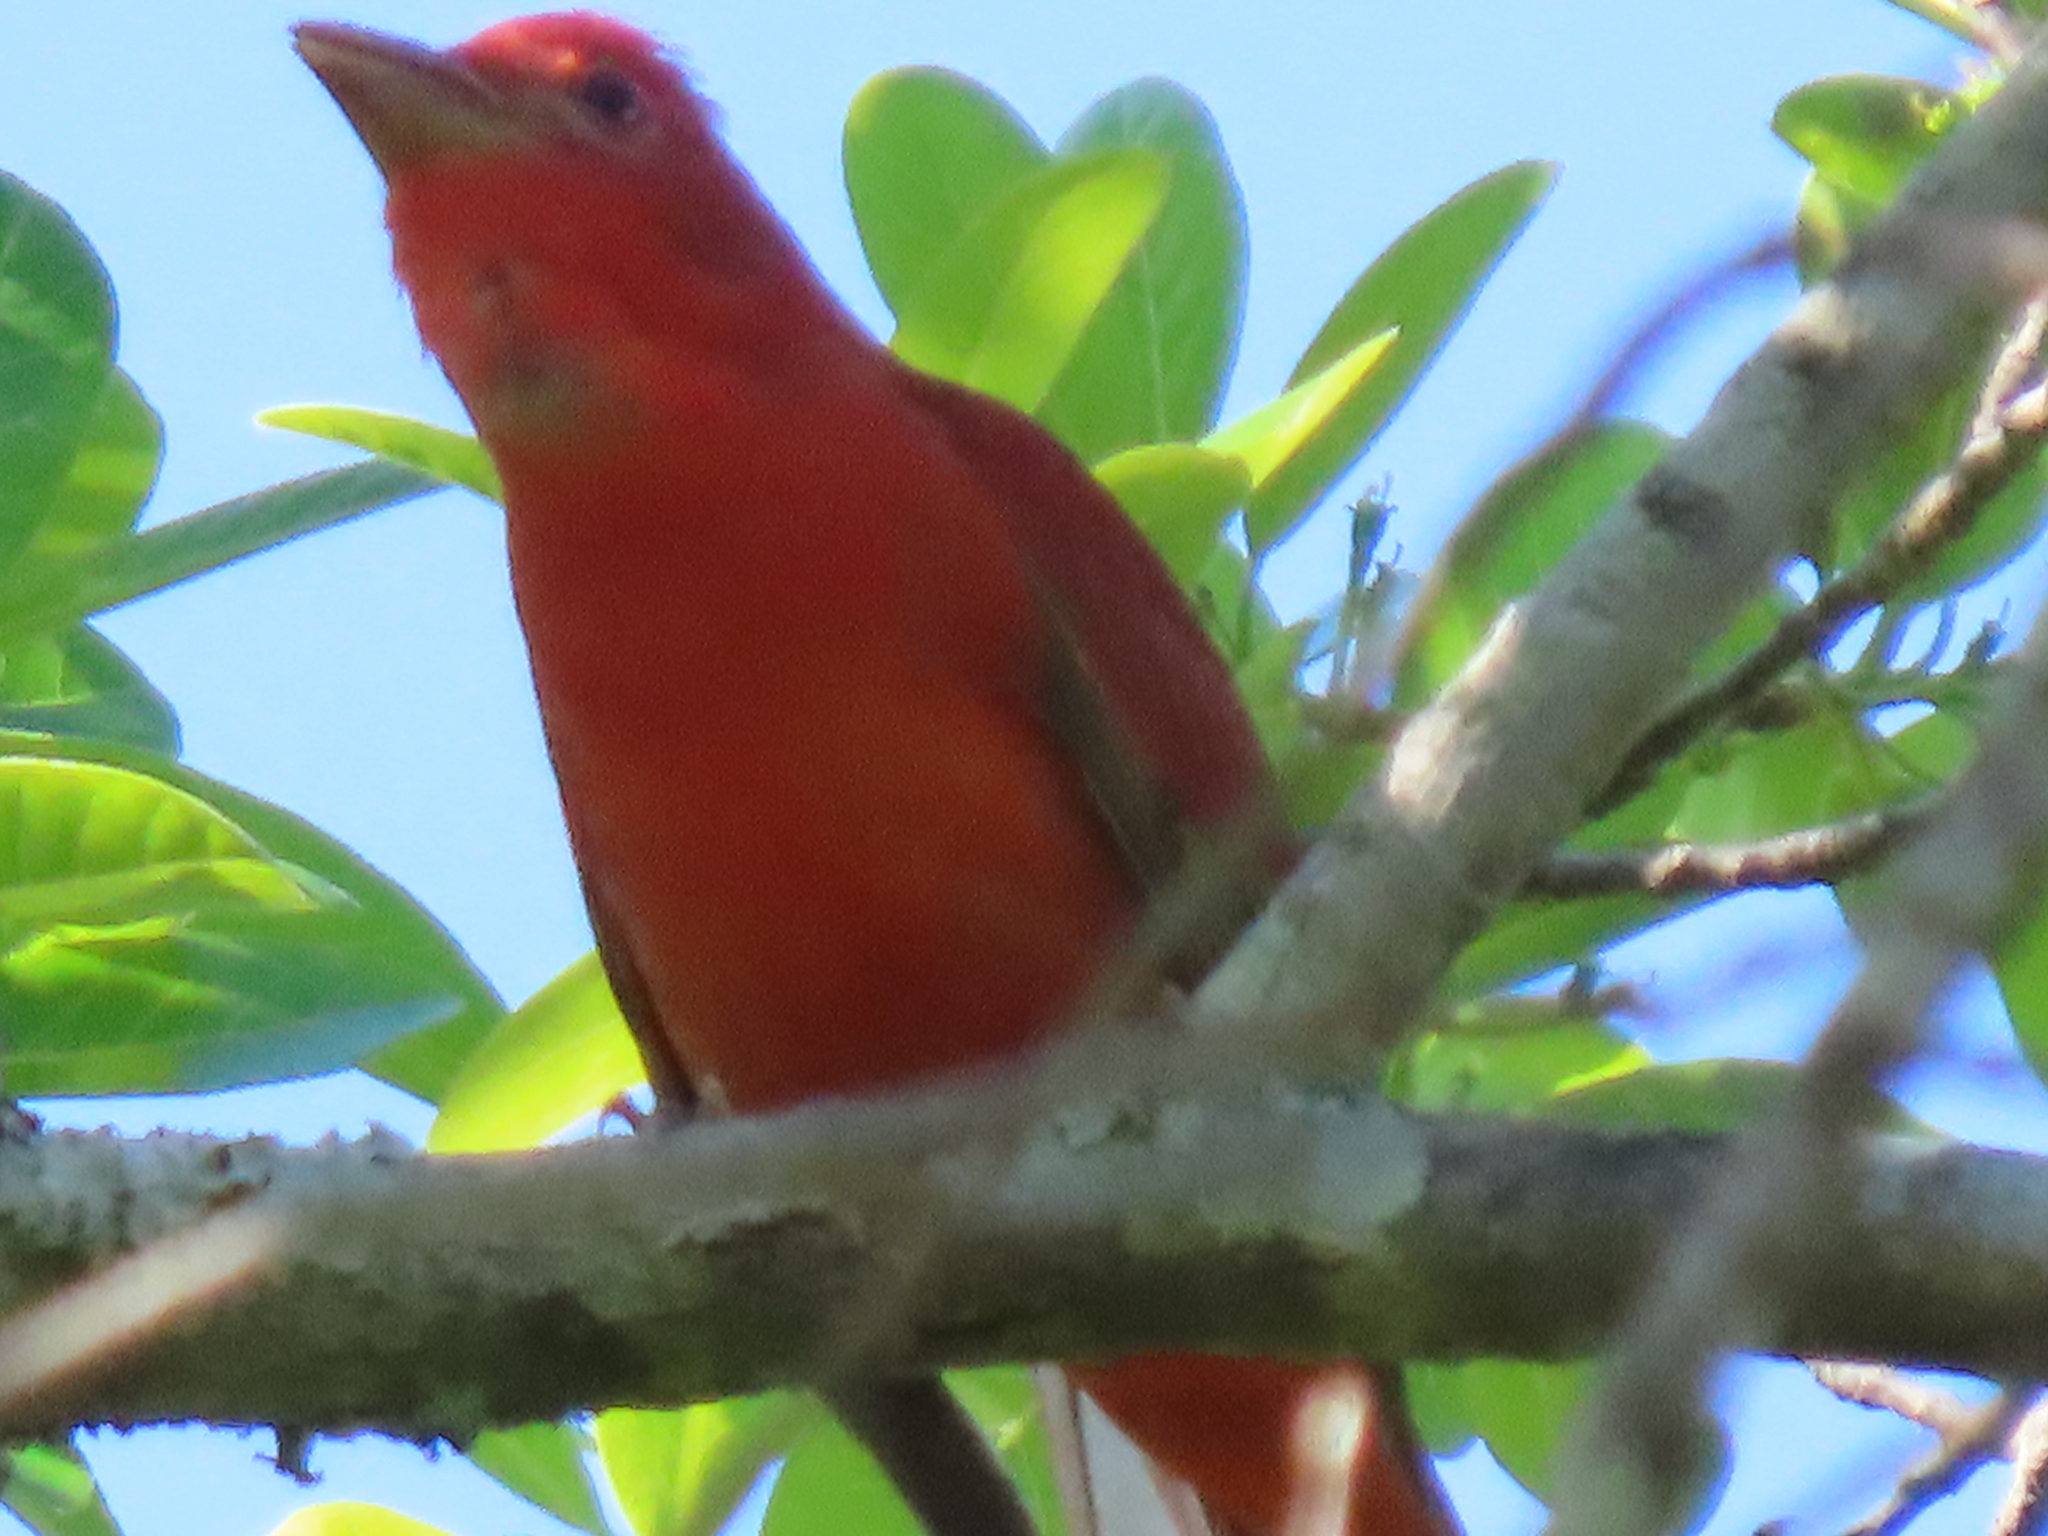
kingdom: Animalia
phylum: Chordata
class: Aves
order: Passeriformes
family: Cardinalidae
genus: Piranga
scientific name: Piranga rubra
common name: Summer tanager
